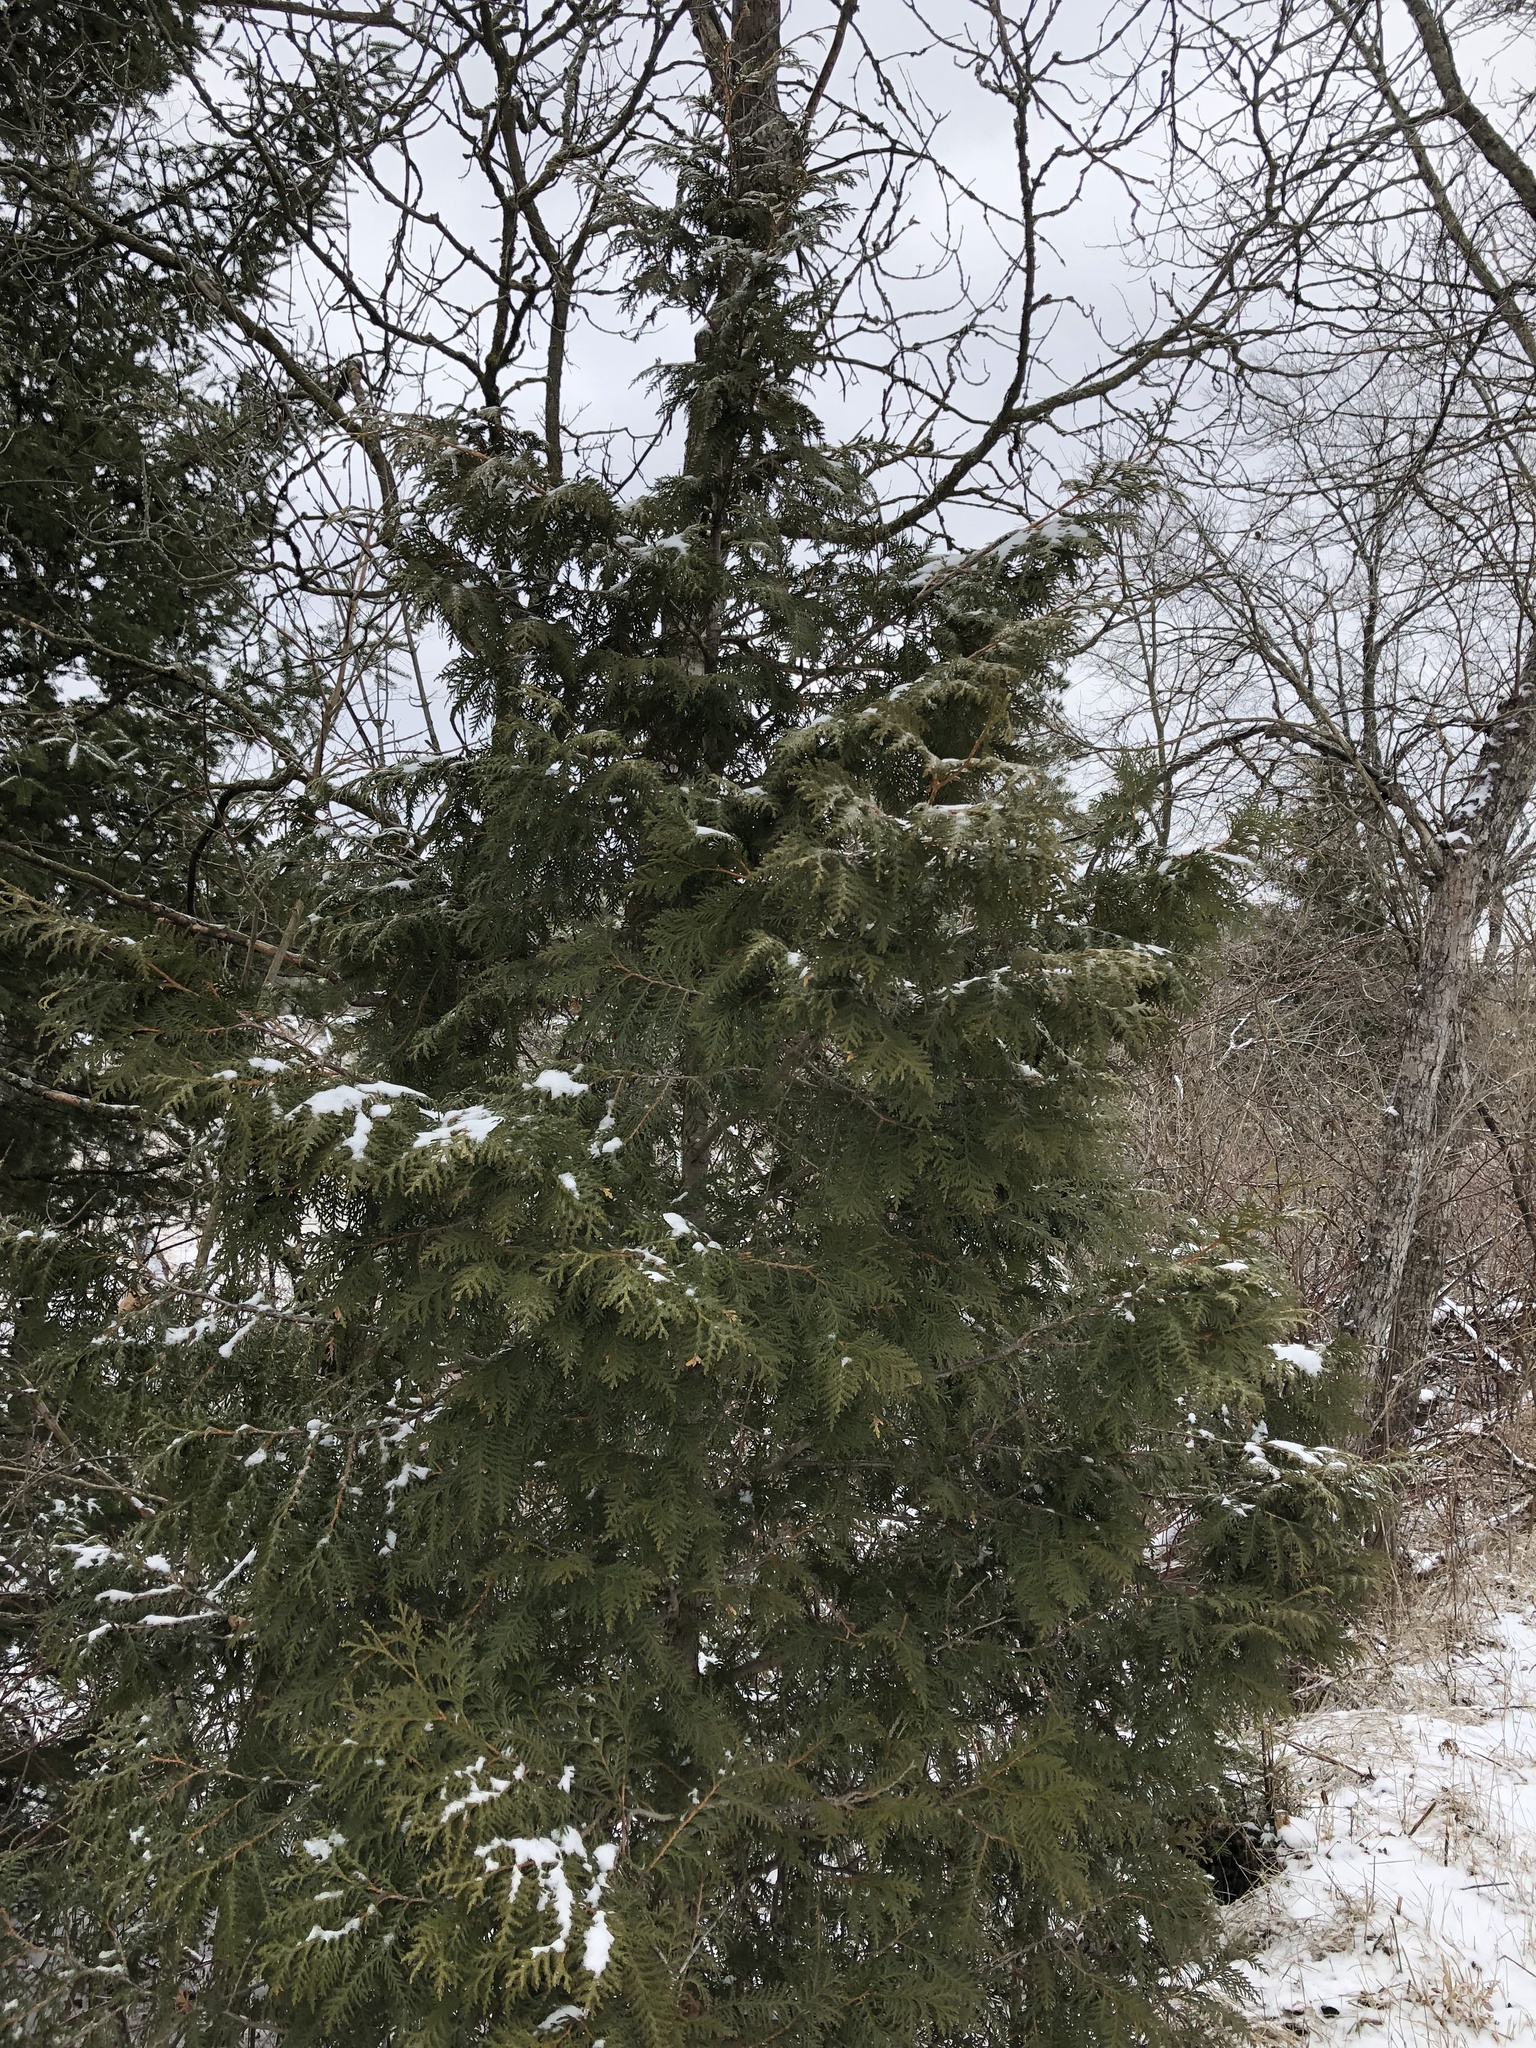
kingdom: Plantae
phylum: Tracheophyta
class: Pinopsida
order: Pinales
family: Cupressaceae
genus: Thuja
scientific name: Thuja occidentalis
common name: Northern white-cedar
